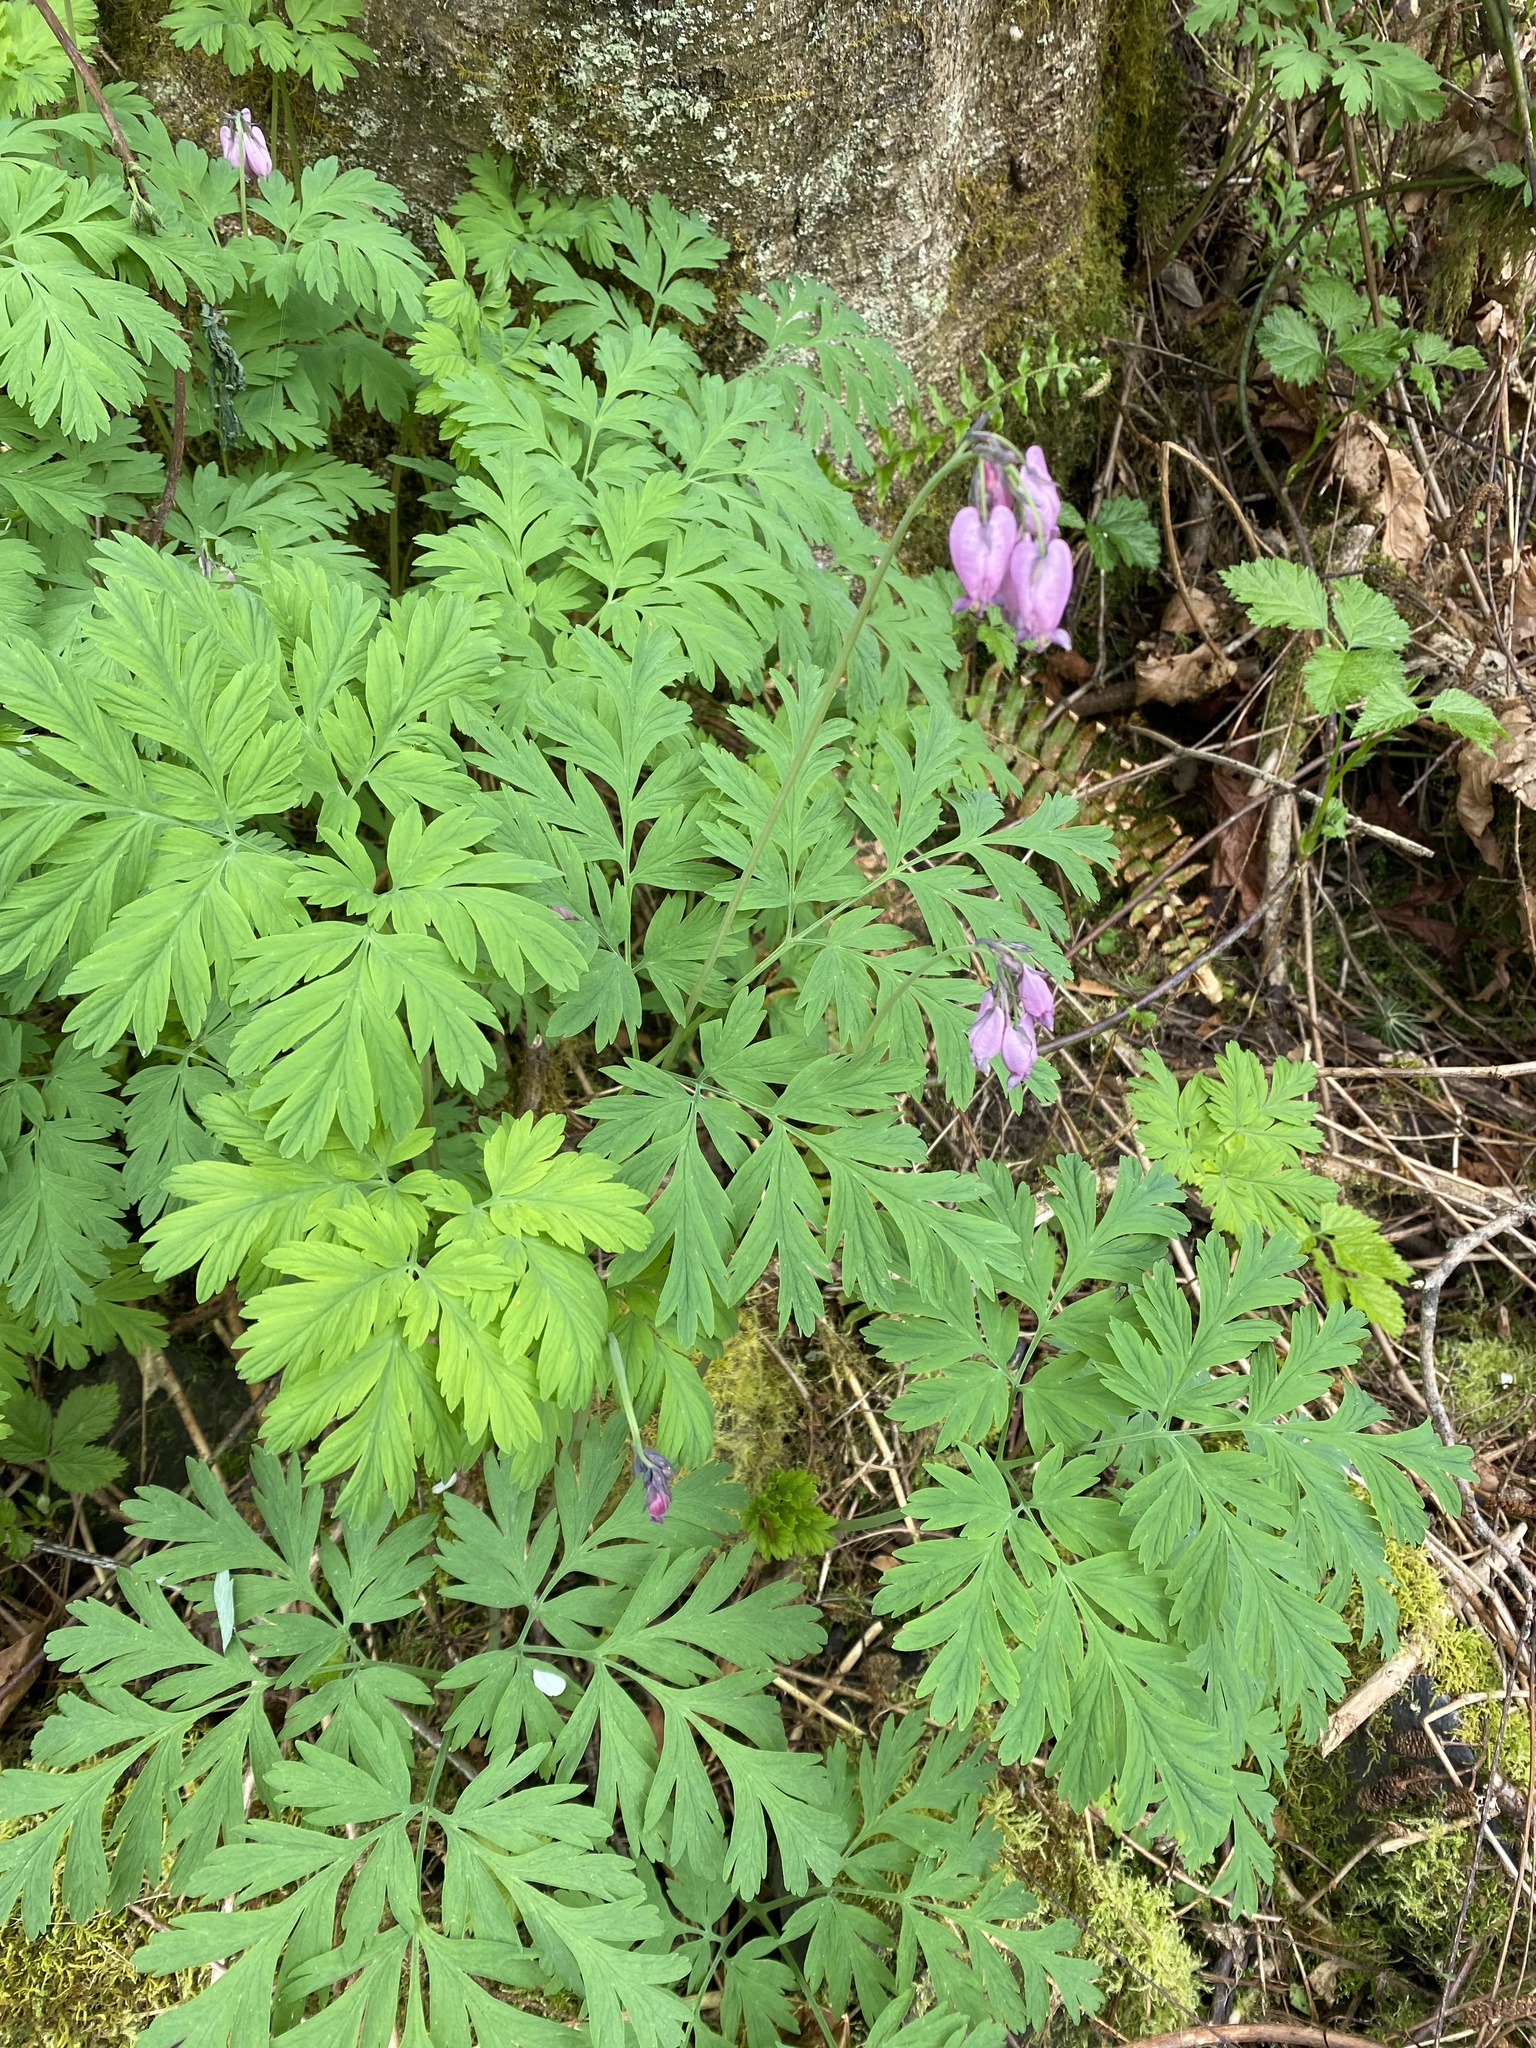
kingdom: Plantae
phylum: Tracheophyta
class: Magnoliopsida
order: Ranunculales
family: Papaveraceae
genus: Dicentra
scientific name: Dicentra formosa
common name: Bleeding-heart
